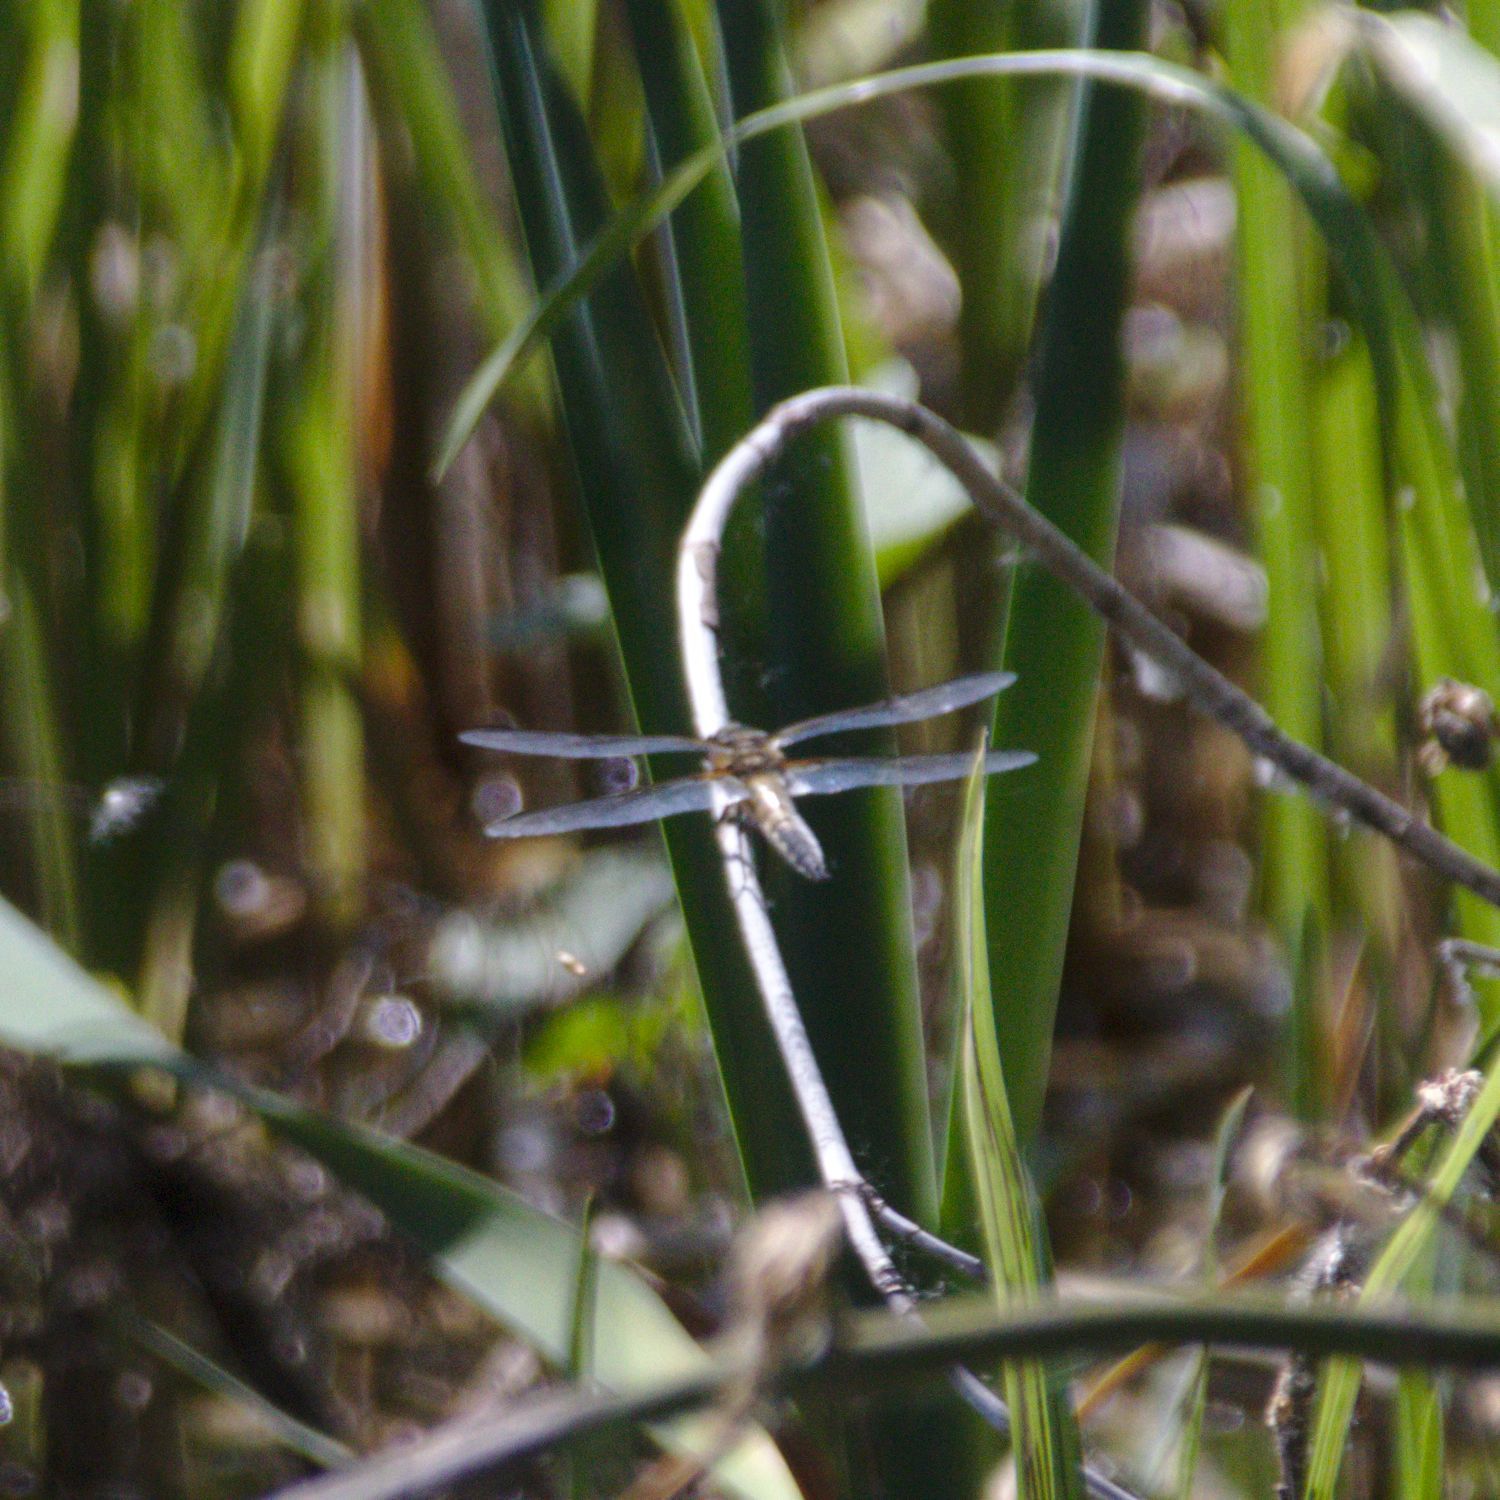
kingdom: Animalia
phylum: Arthropoda
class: Insecta
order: Odonata
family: Libellulidae
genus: Libellula
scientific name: Libellula quadrimaculata
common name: Four-spotted chaser
